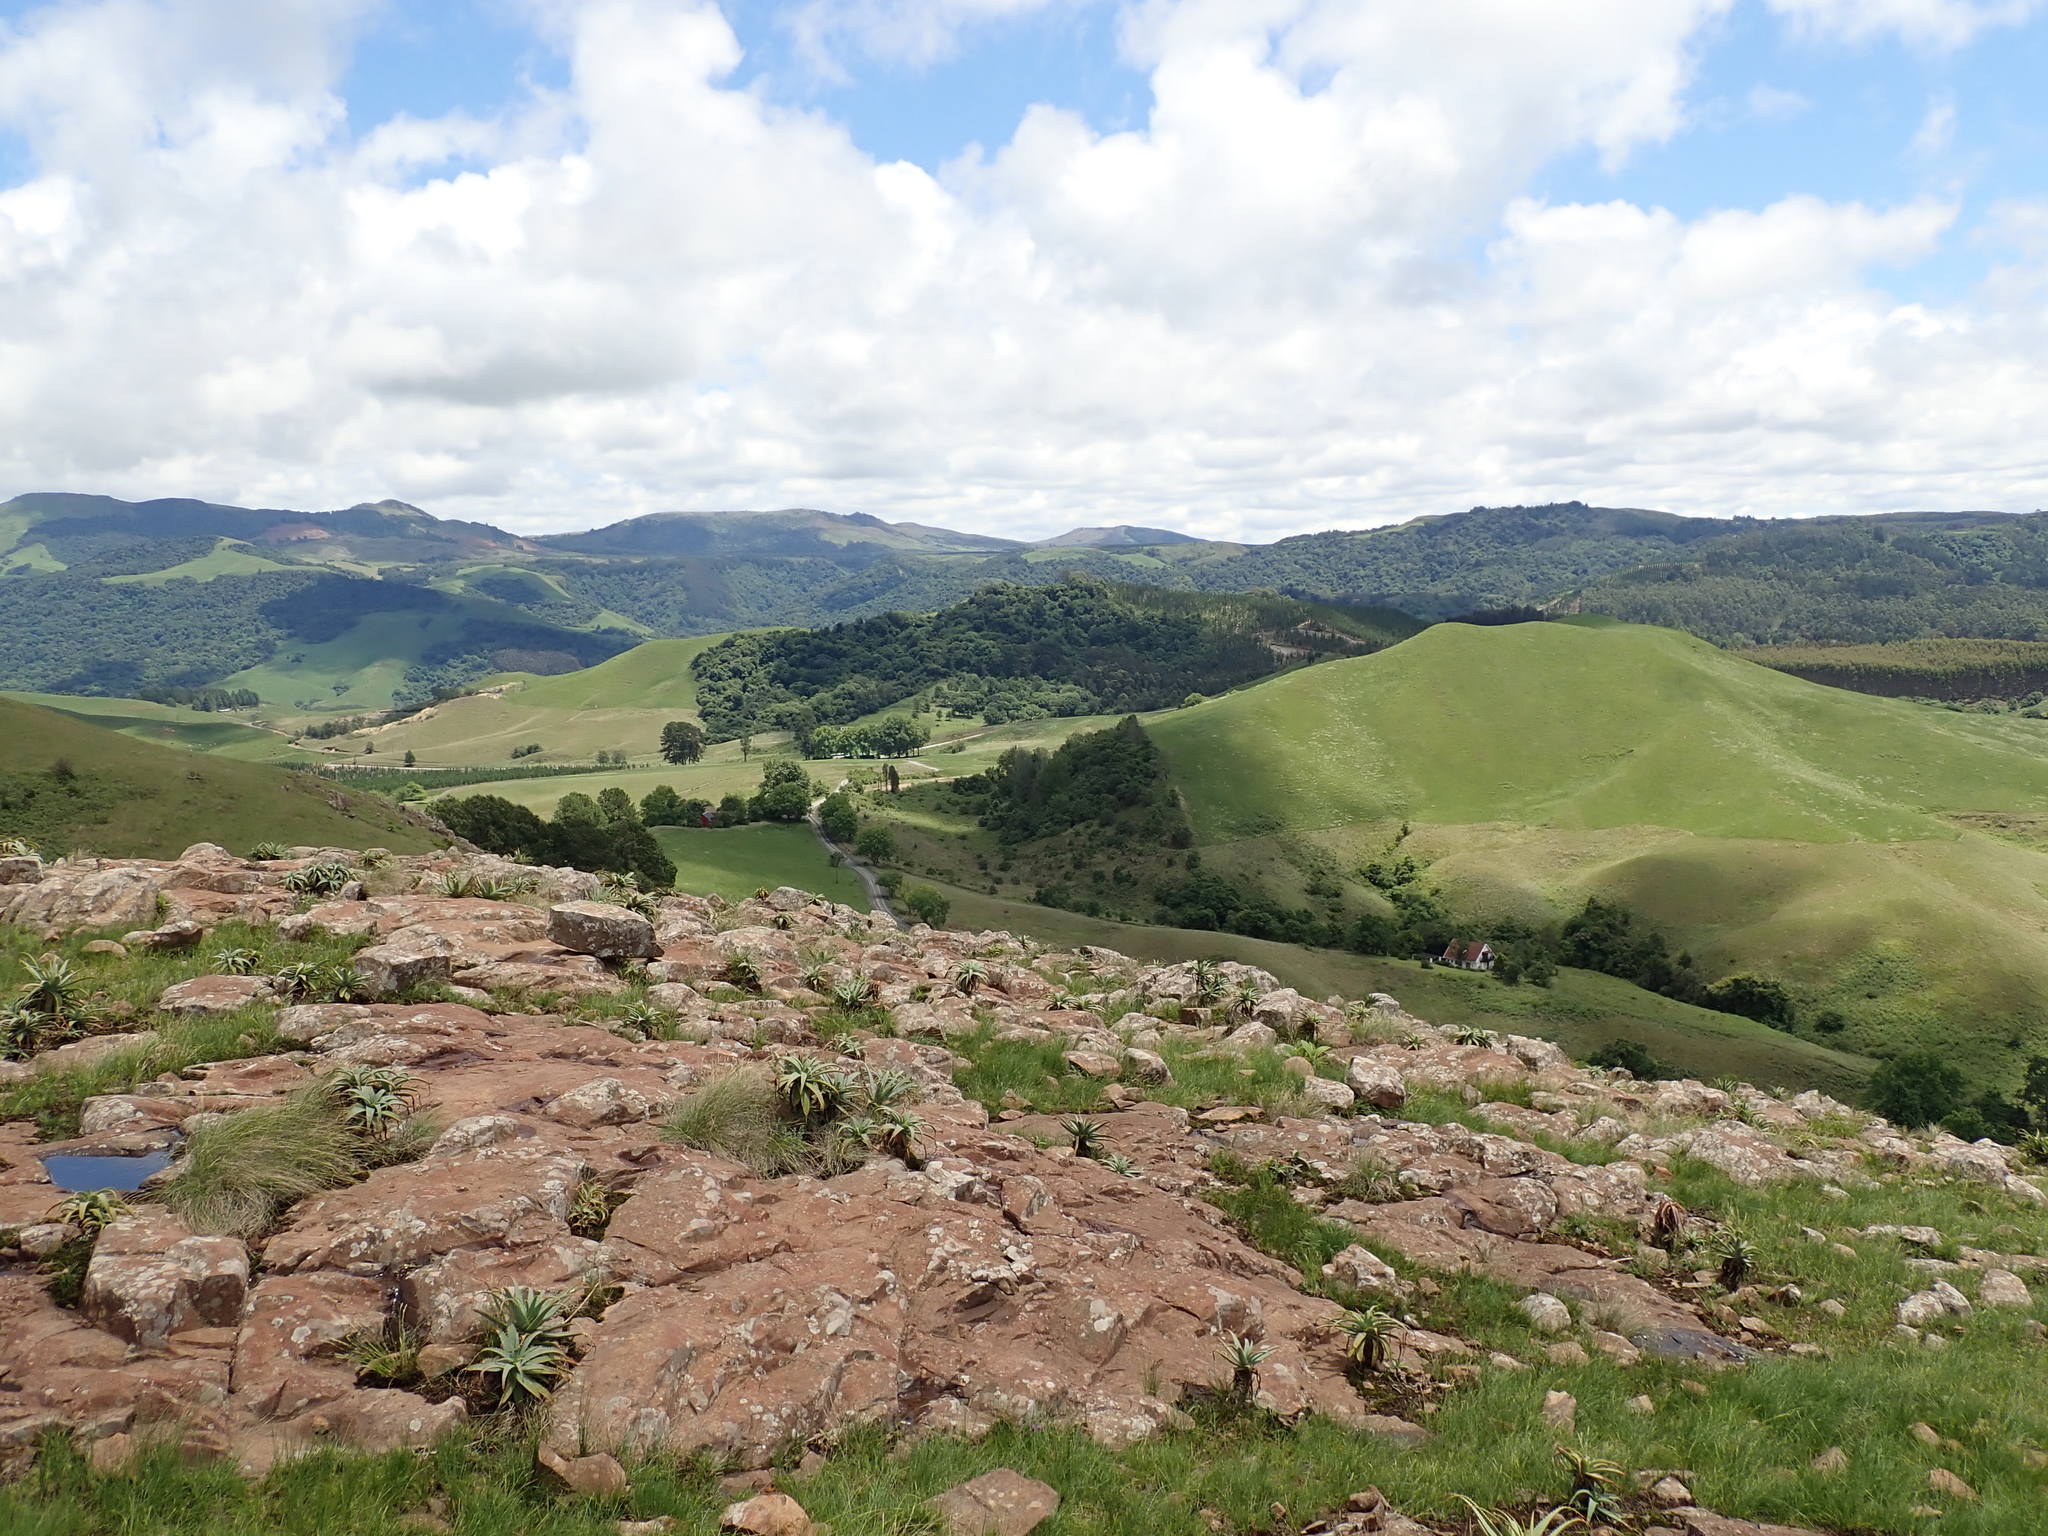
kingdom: Plantae
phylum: Tracheophyta
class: Liliopsida
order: Asparagales
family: Asphodelaceae
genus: Aloe
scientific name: Aloe arborescens
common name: Candelabra aloe
